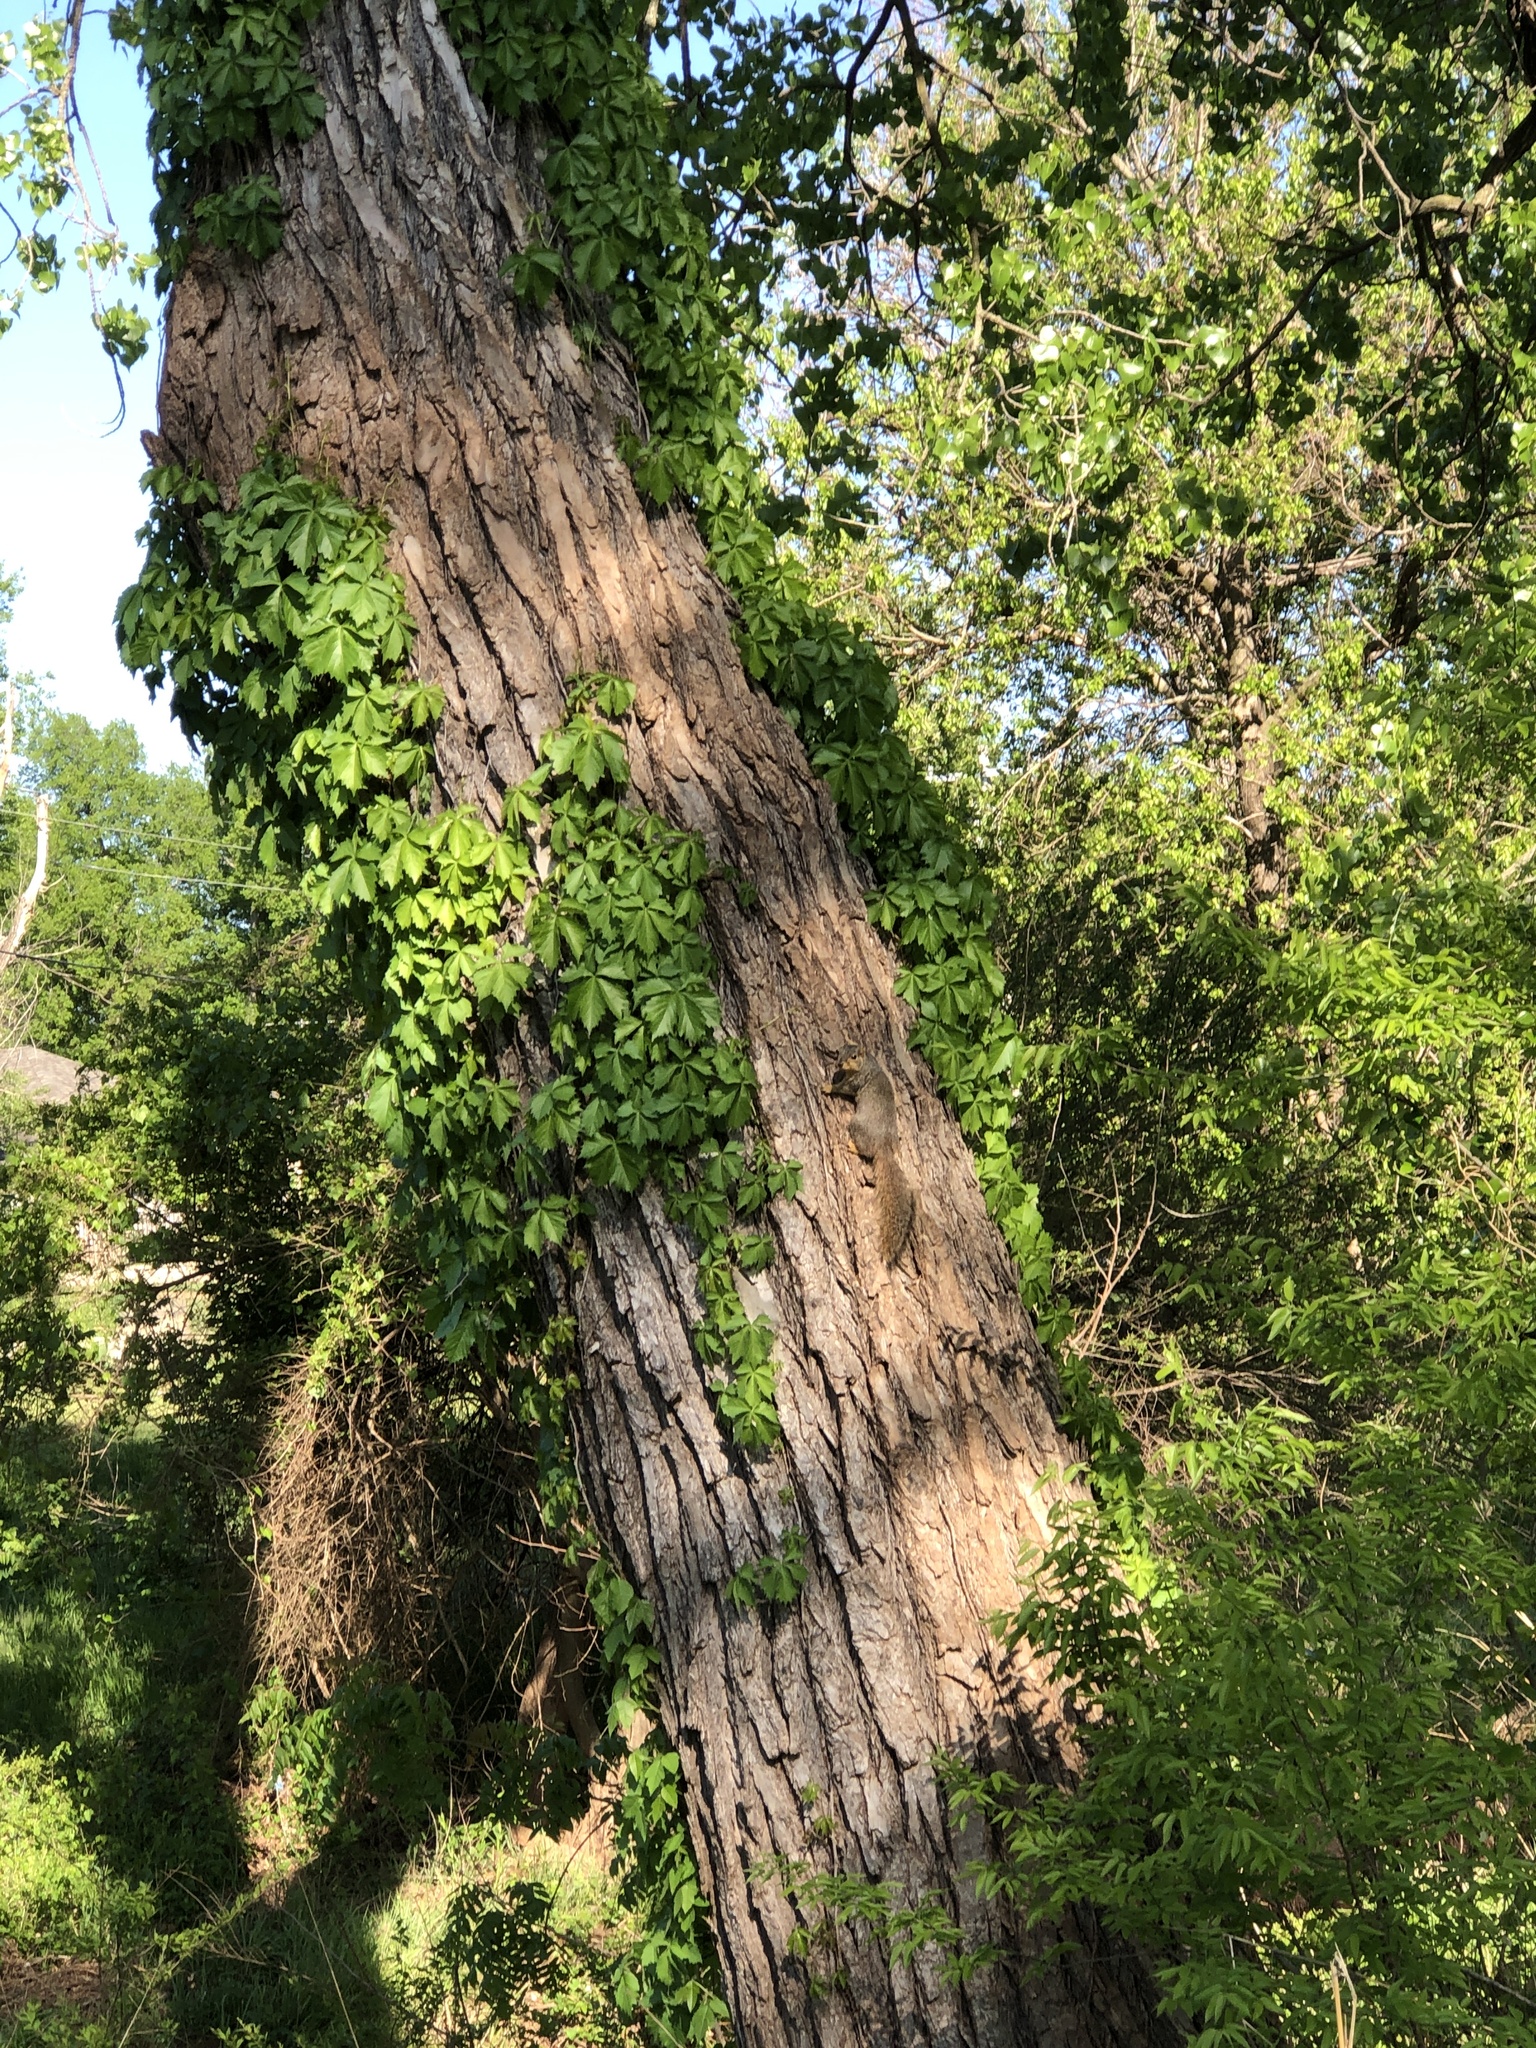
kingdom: Animalia
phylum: Chordata
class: Mammalia
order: Rodentia
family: Sciuridae
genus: Sciurus
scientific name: Sciurus niger
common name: Fox squirrel
